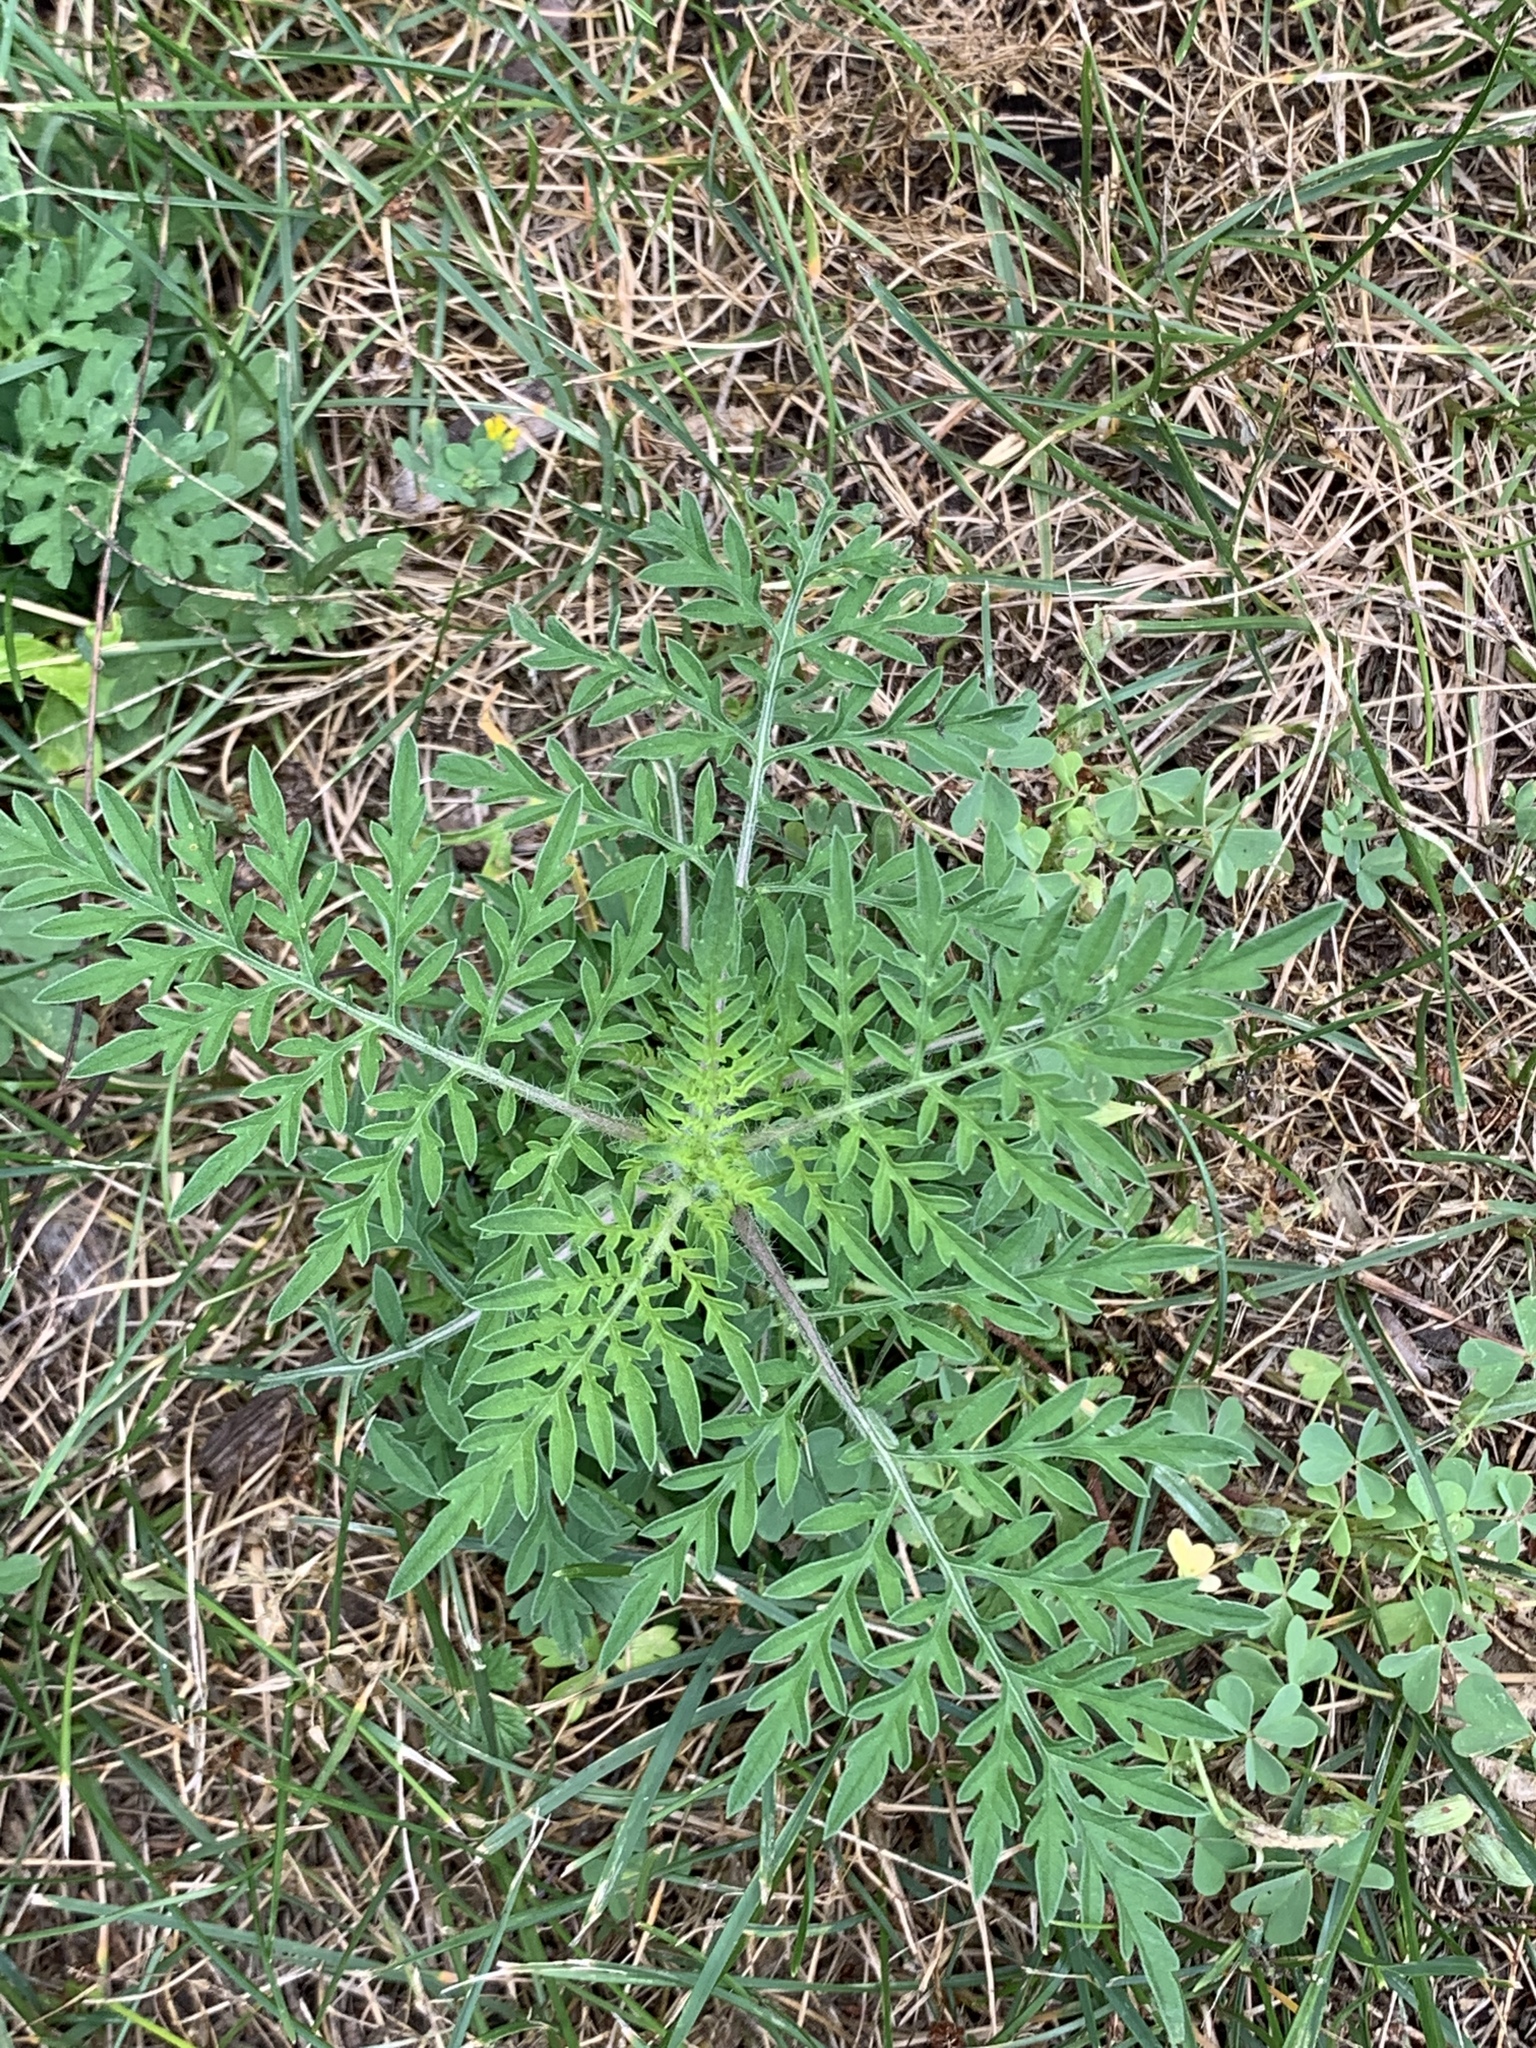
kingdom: Plantae
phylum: Tracheophyta
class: Magnoliopsida
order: Asterales
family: Asteraceae
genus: Ambrosia
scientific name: Ambrosia artemisiifolia
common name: Annual ragweed
